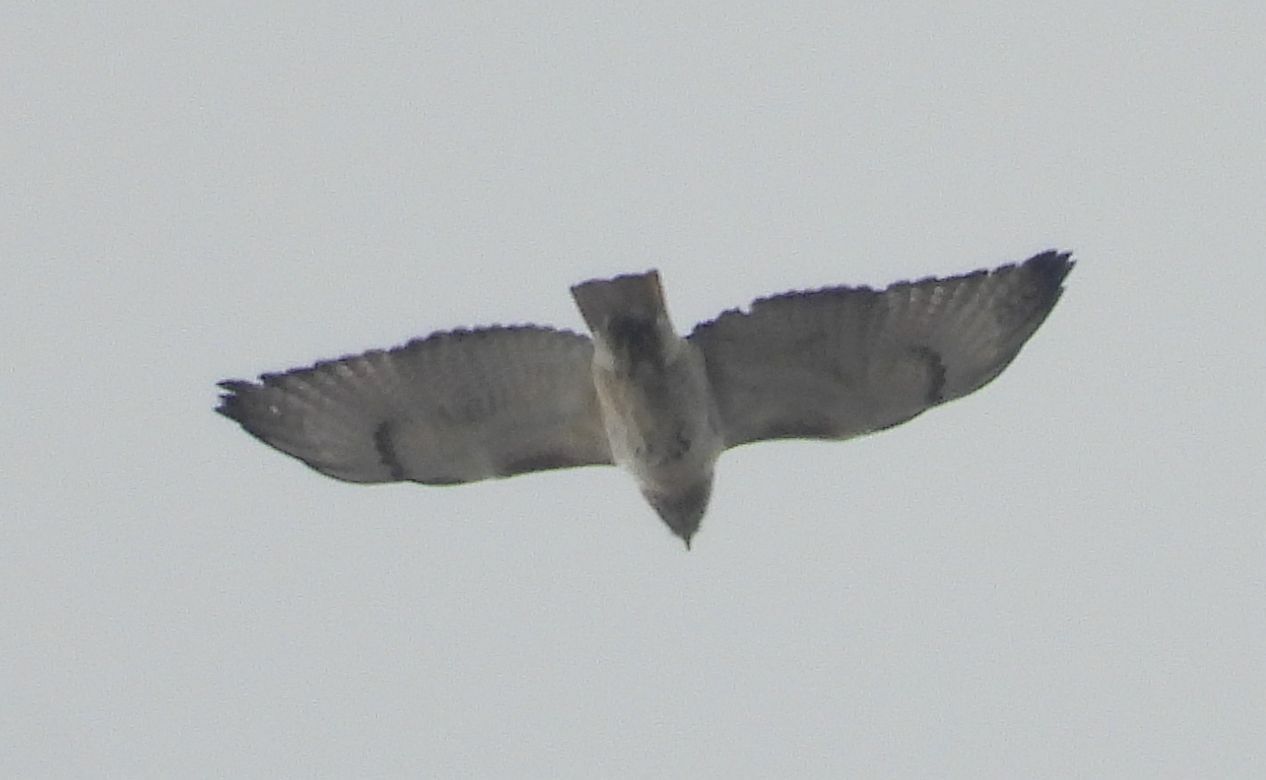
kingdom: Animalia
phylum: Chordata
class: Aves
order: Accipitriformes
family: Accipitridae
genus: Buteo
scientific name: Buteo jamaicensis
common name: Red-tailed hawk
